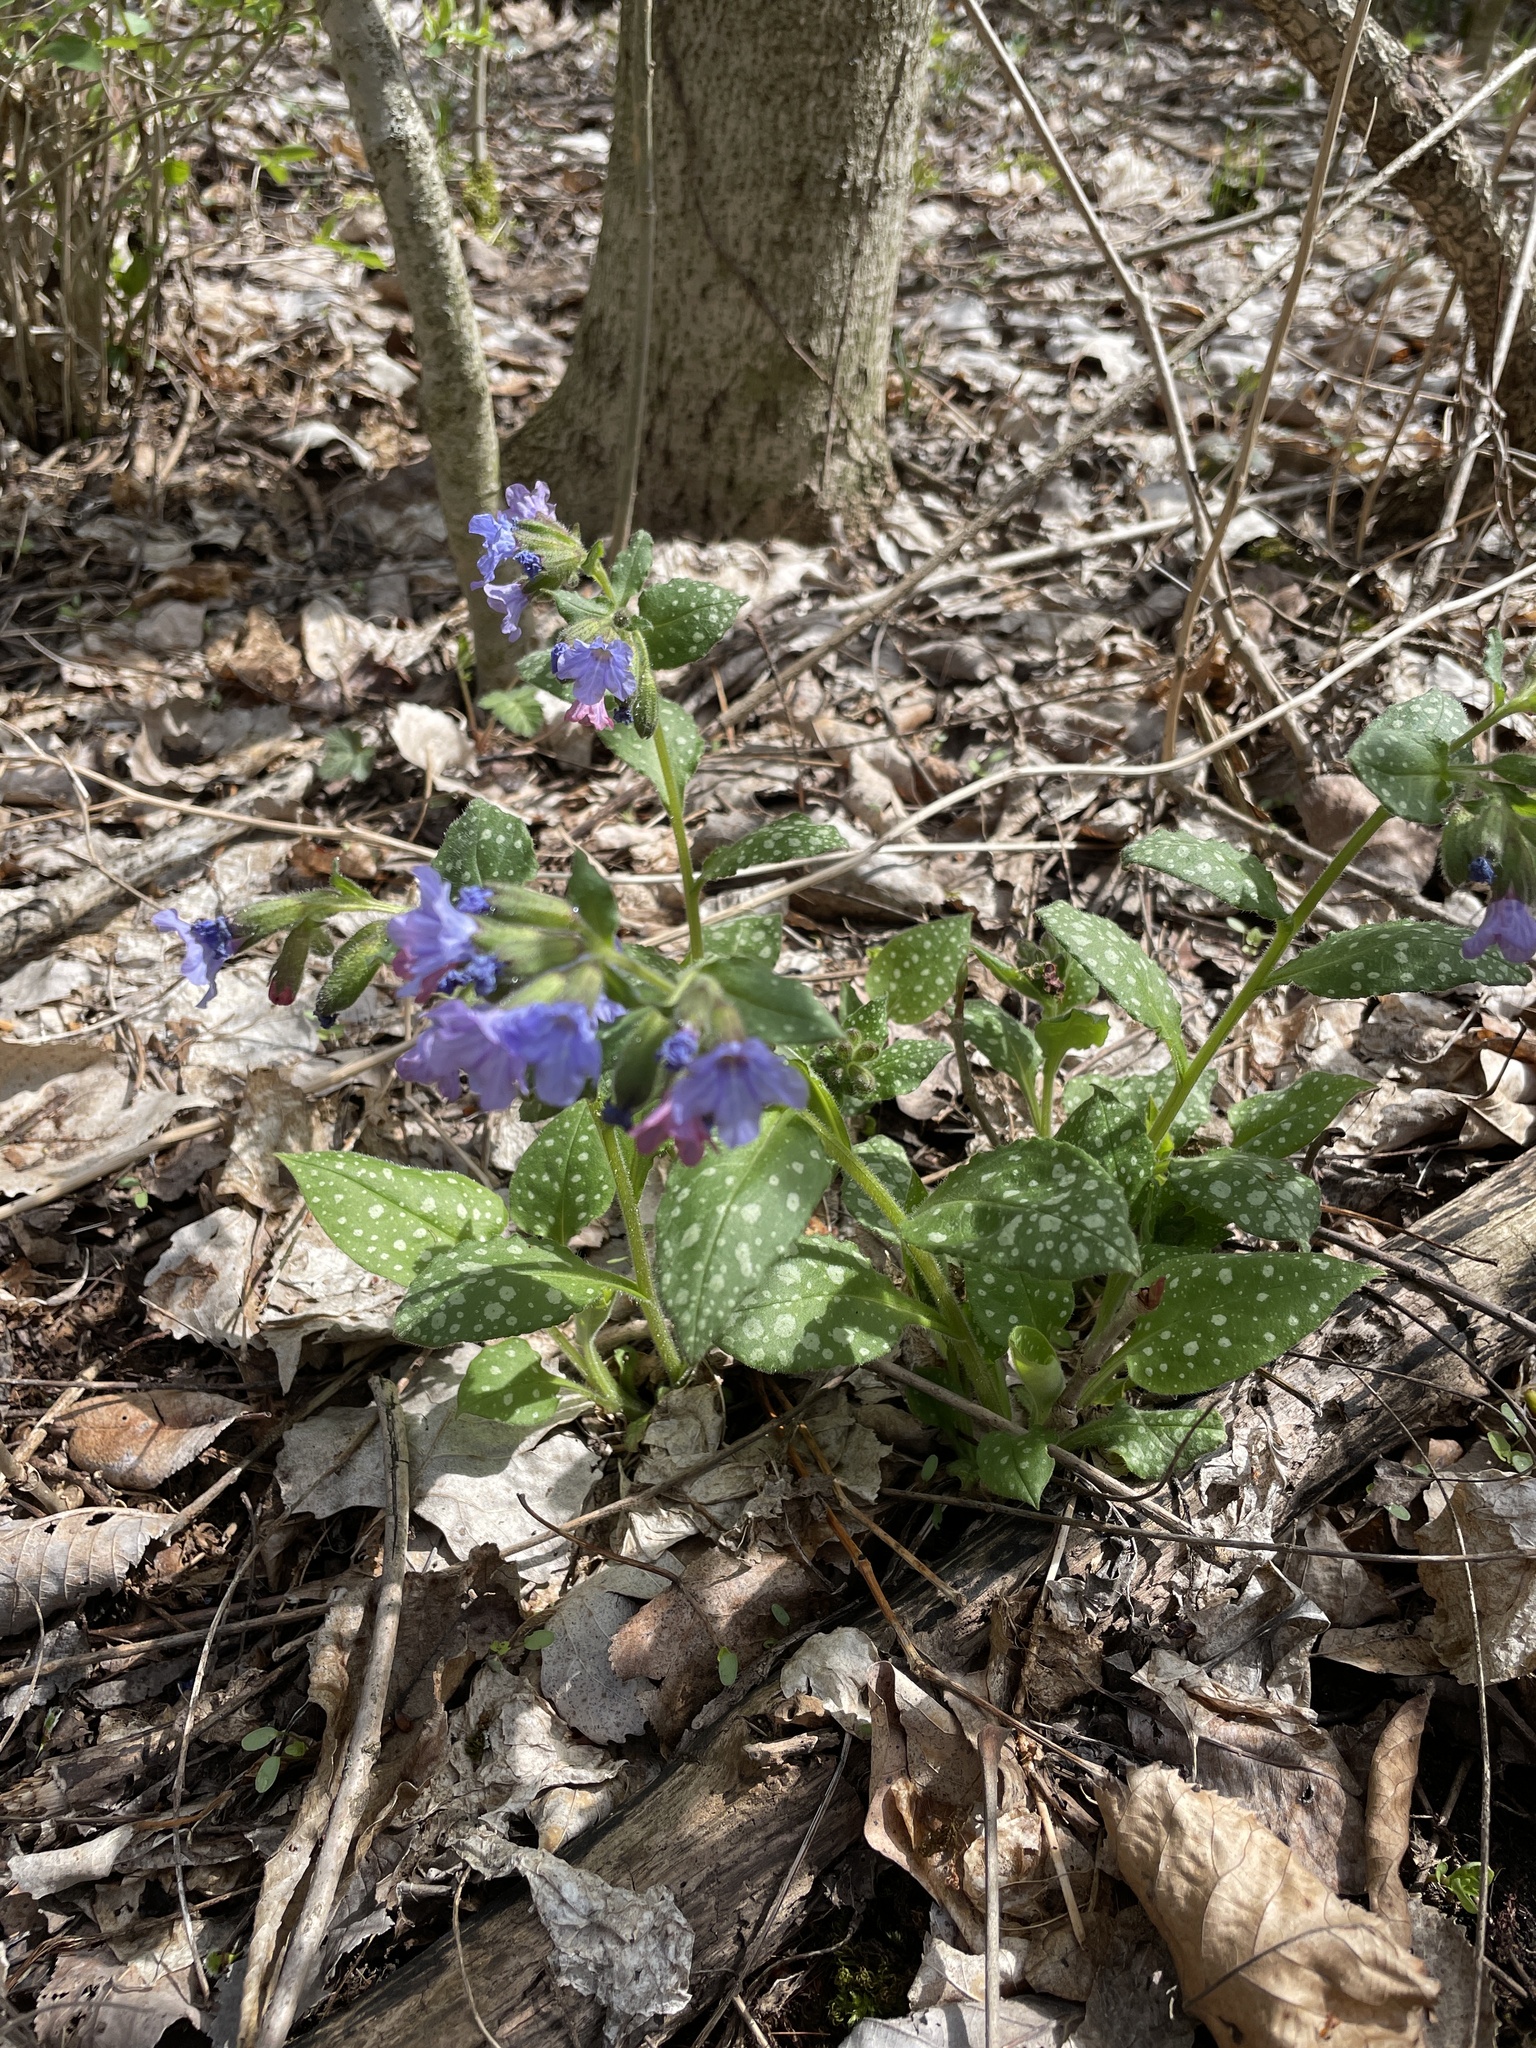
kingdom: Plantae
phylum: Tracheophyta
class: Magnoliopsida
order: Boraginales
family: Boraginaceae
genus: Pulmonaria
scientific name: Pulmonaria officinalis
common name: Lungwort
